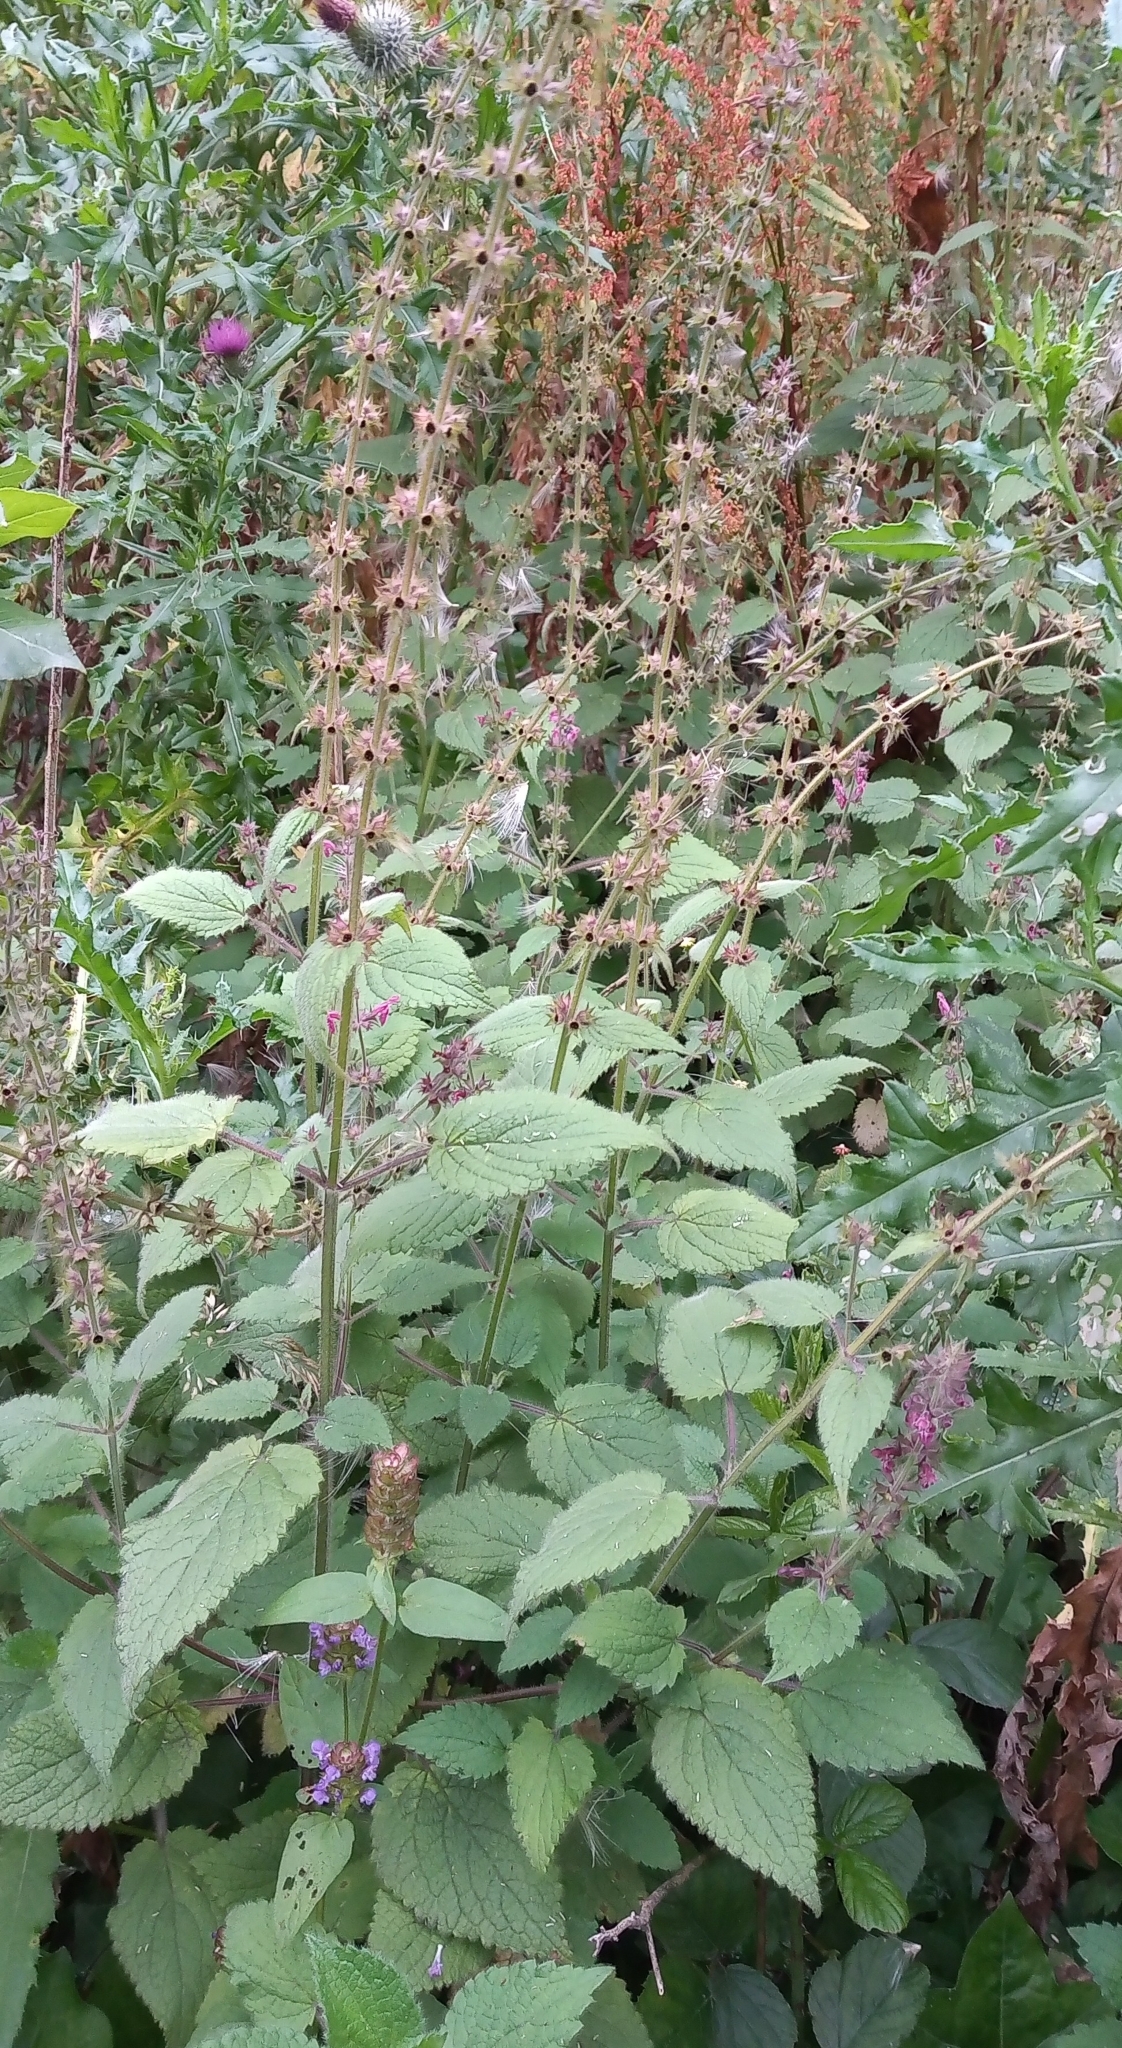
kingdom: Plantae
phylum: Tracheophyta
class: Magnoliopsida
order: Lamiales
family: Lamiaceae
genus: Stachys
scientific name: Stachys sylvatica
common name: Hedge woundwort
